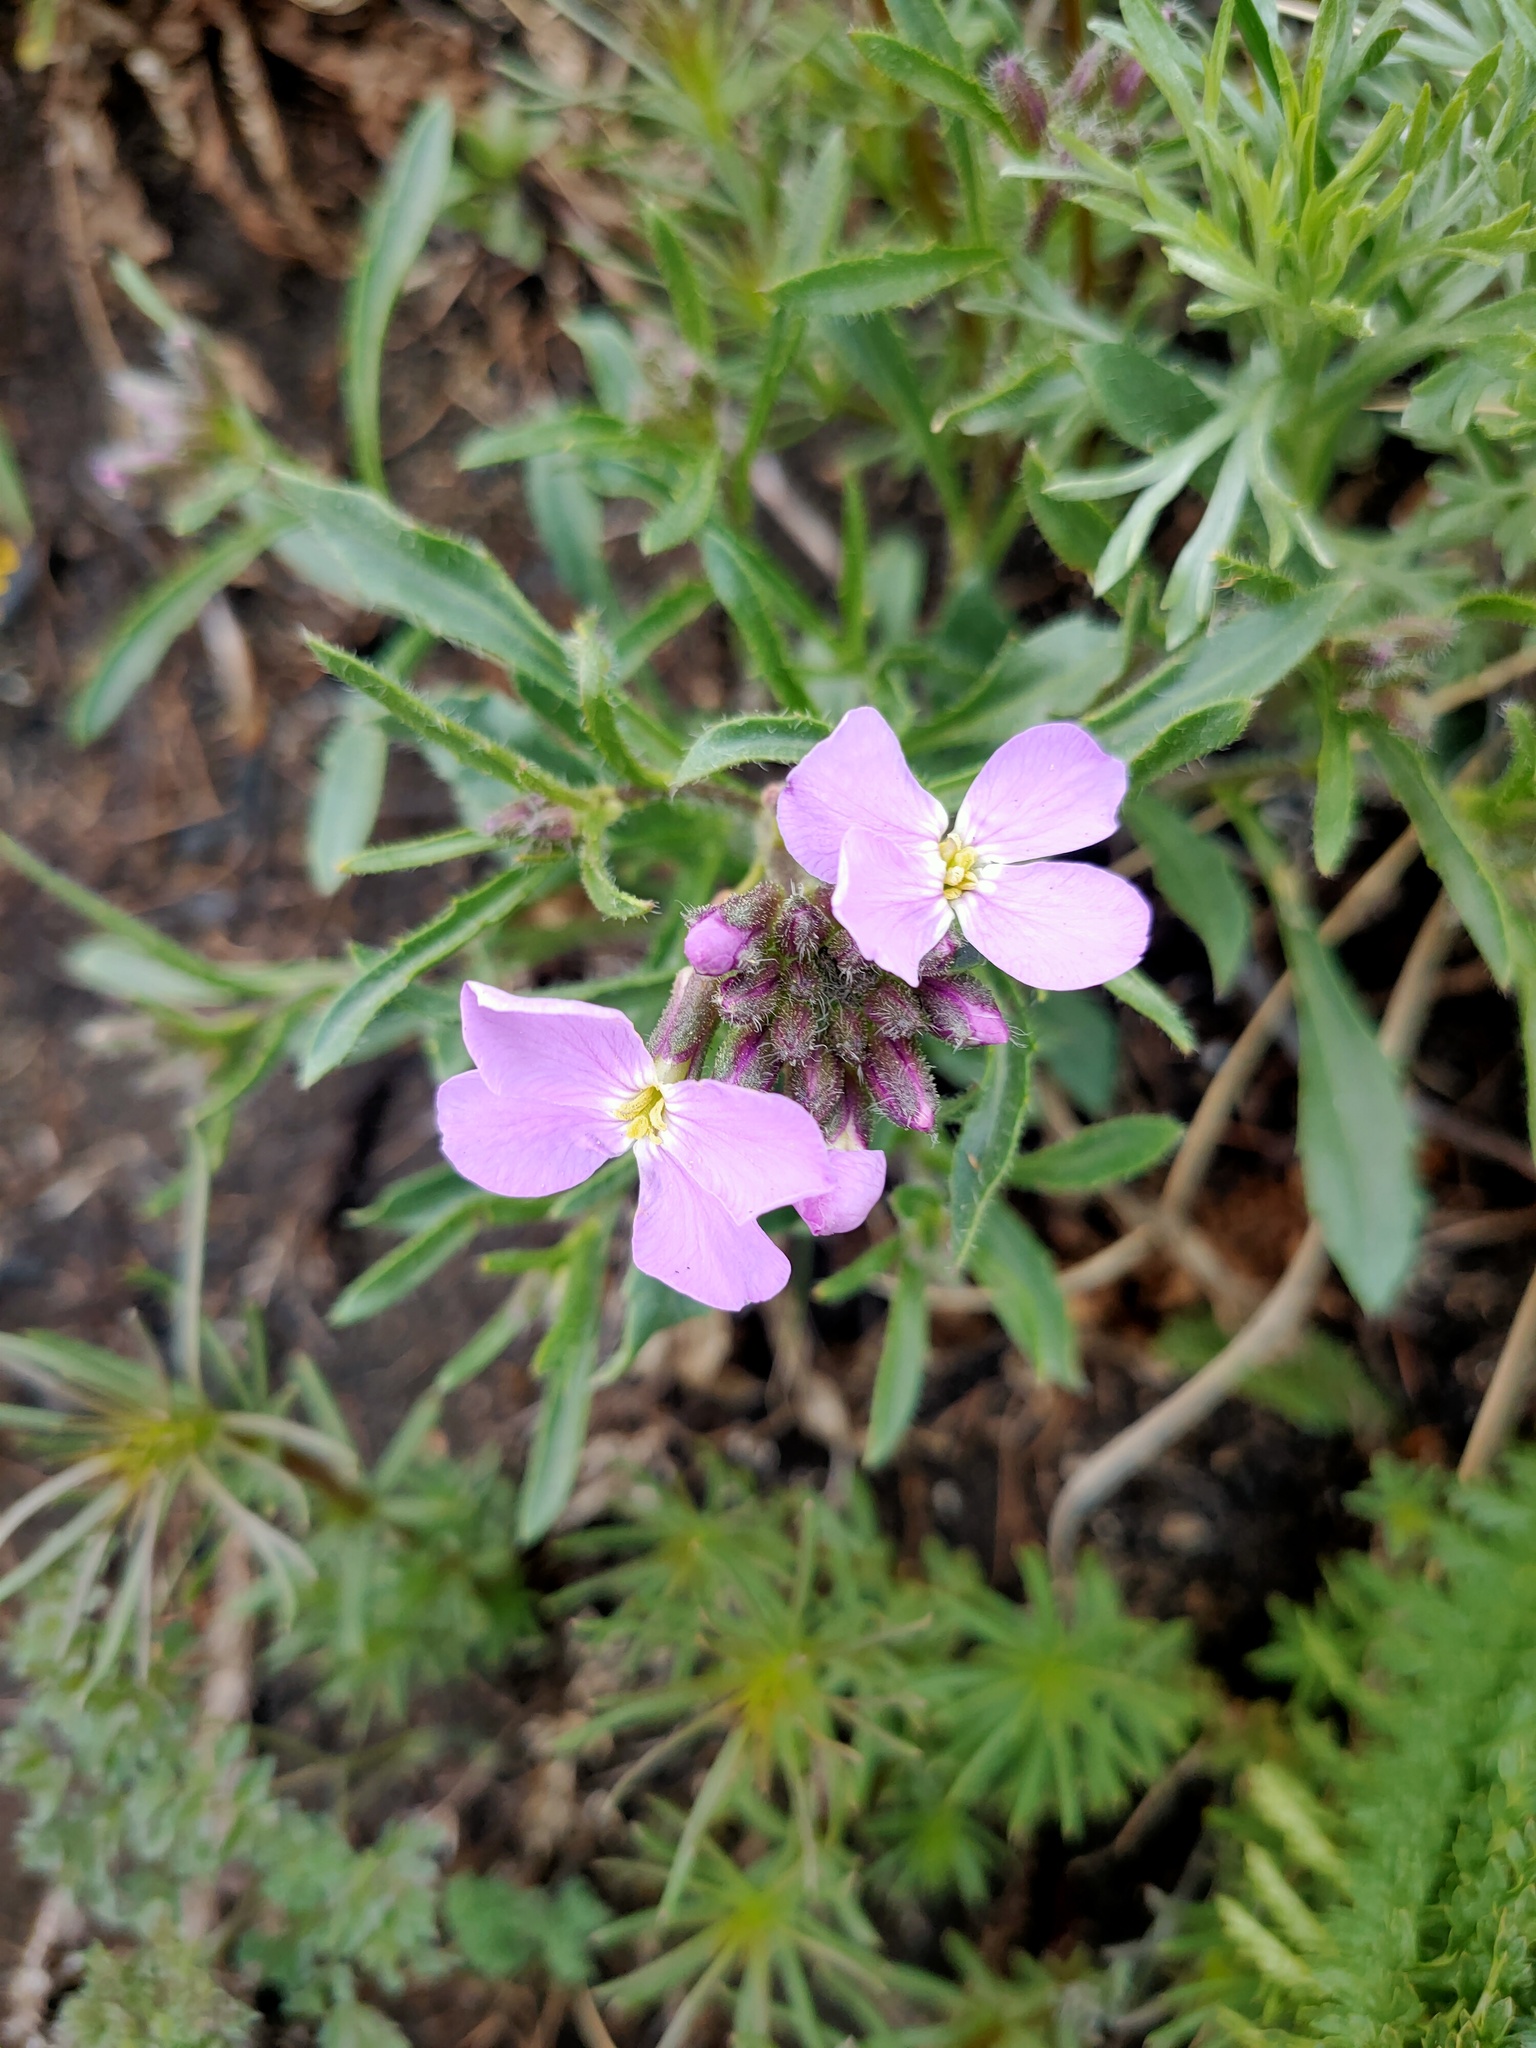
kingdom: Plantae
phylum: Tracheophyta
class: Magnoliopsida
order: Brassicales
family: Brassicaceae
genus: Clausia
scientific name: Clausia aprica
